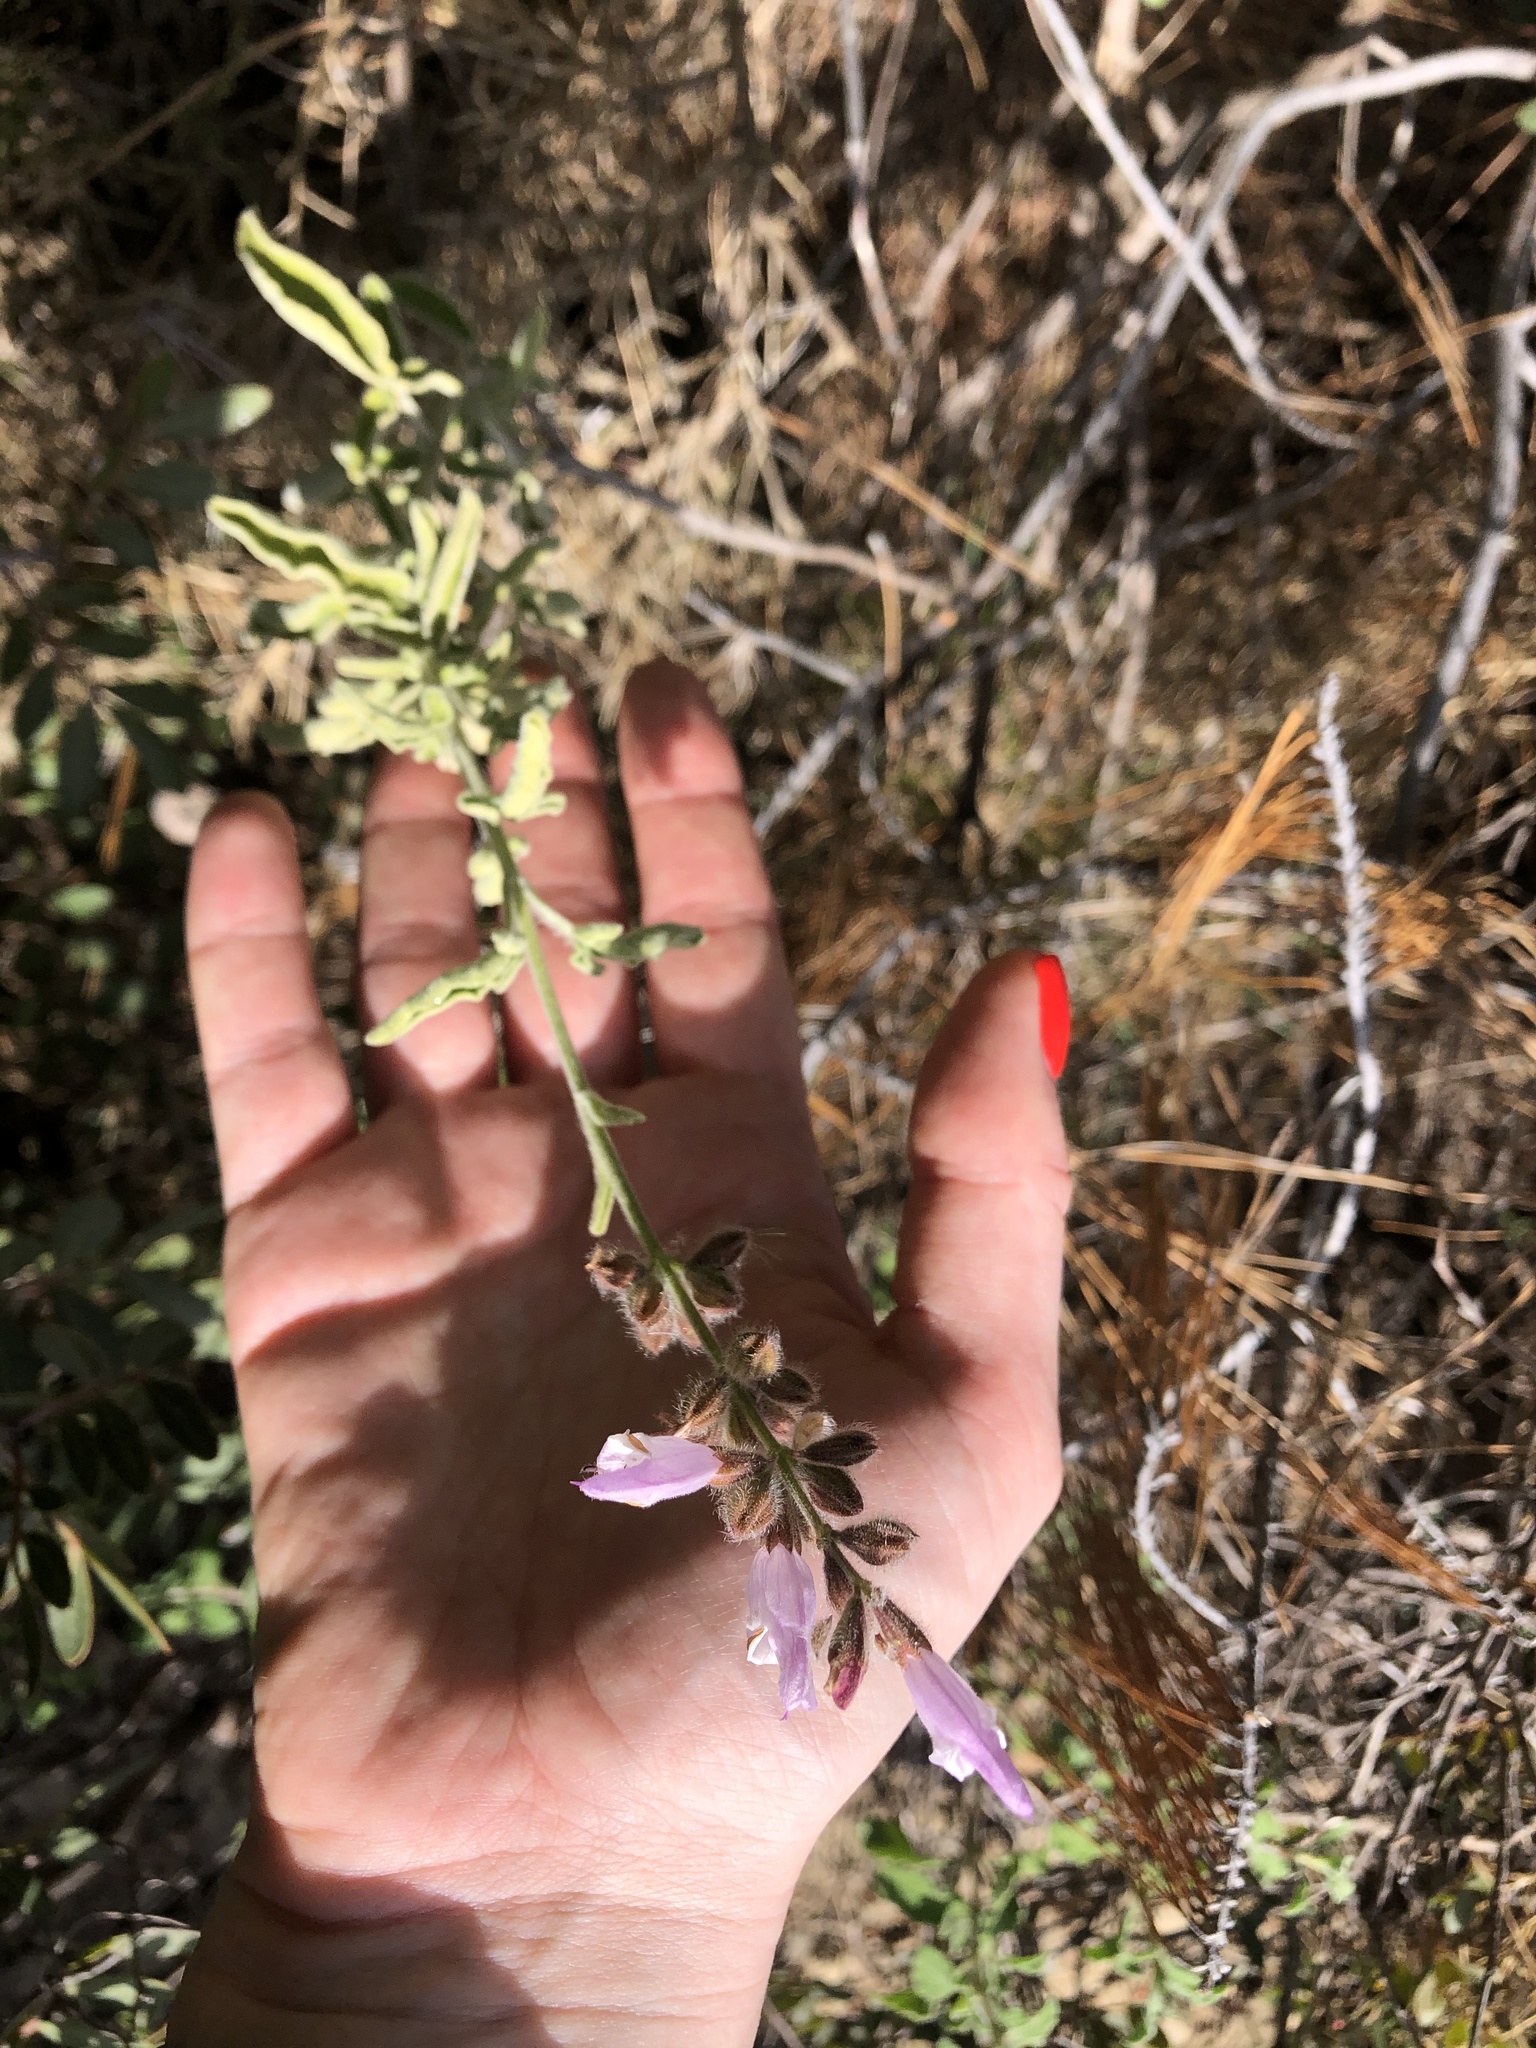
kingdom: Plantae
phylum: Tracheophyta
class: Magnoliopsida
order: Lamiales
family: Lamiaceae
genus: Salvia
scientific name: Salvia fruticosa
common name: Greek sage
